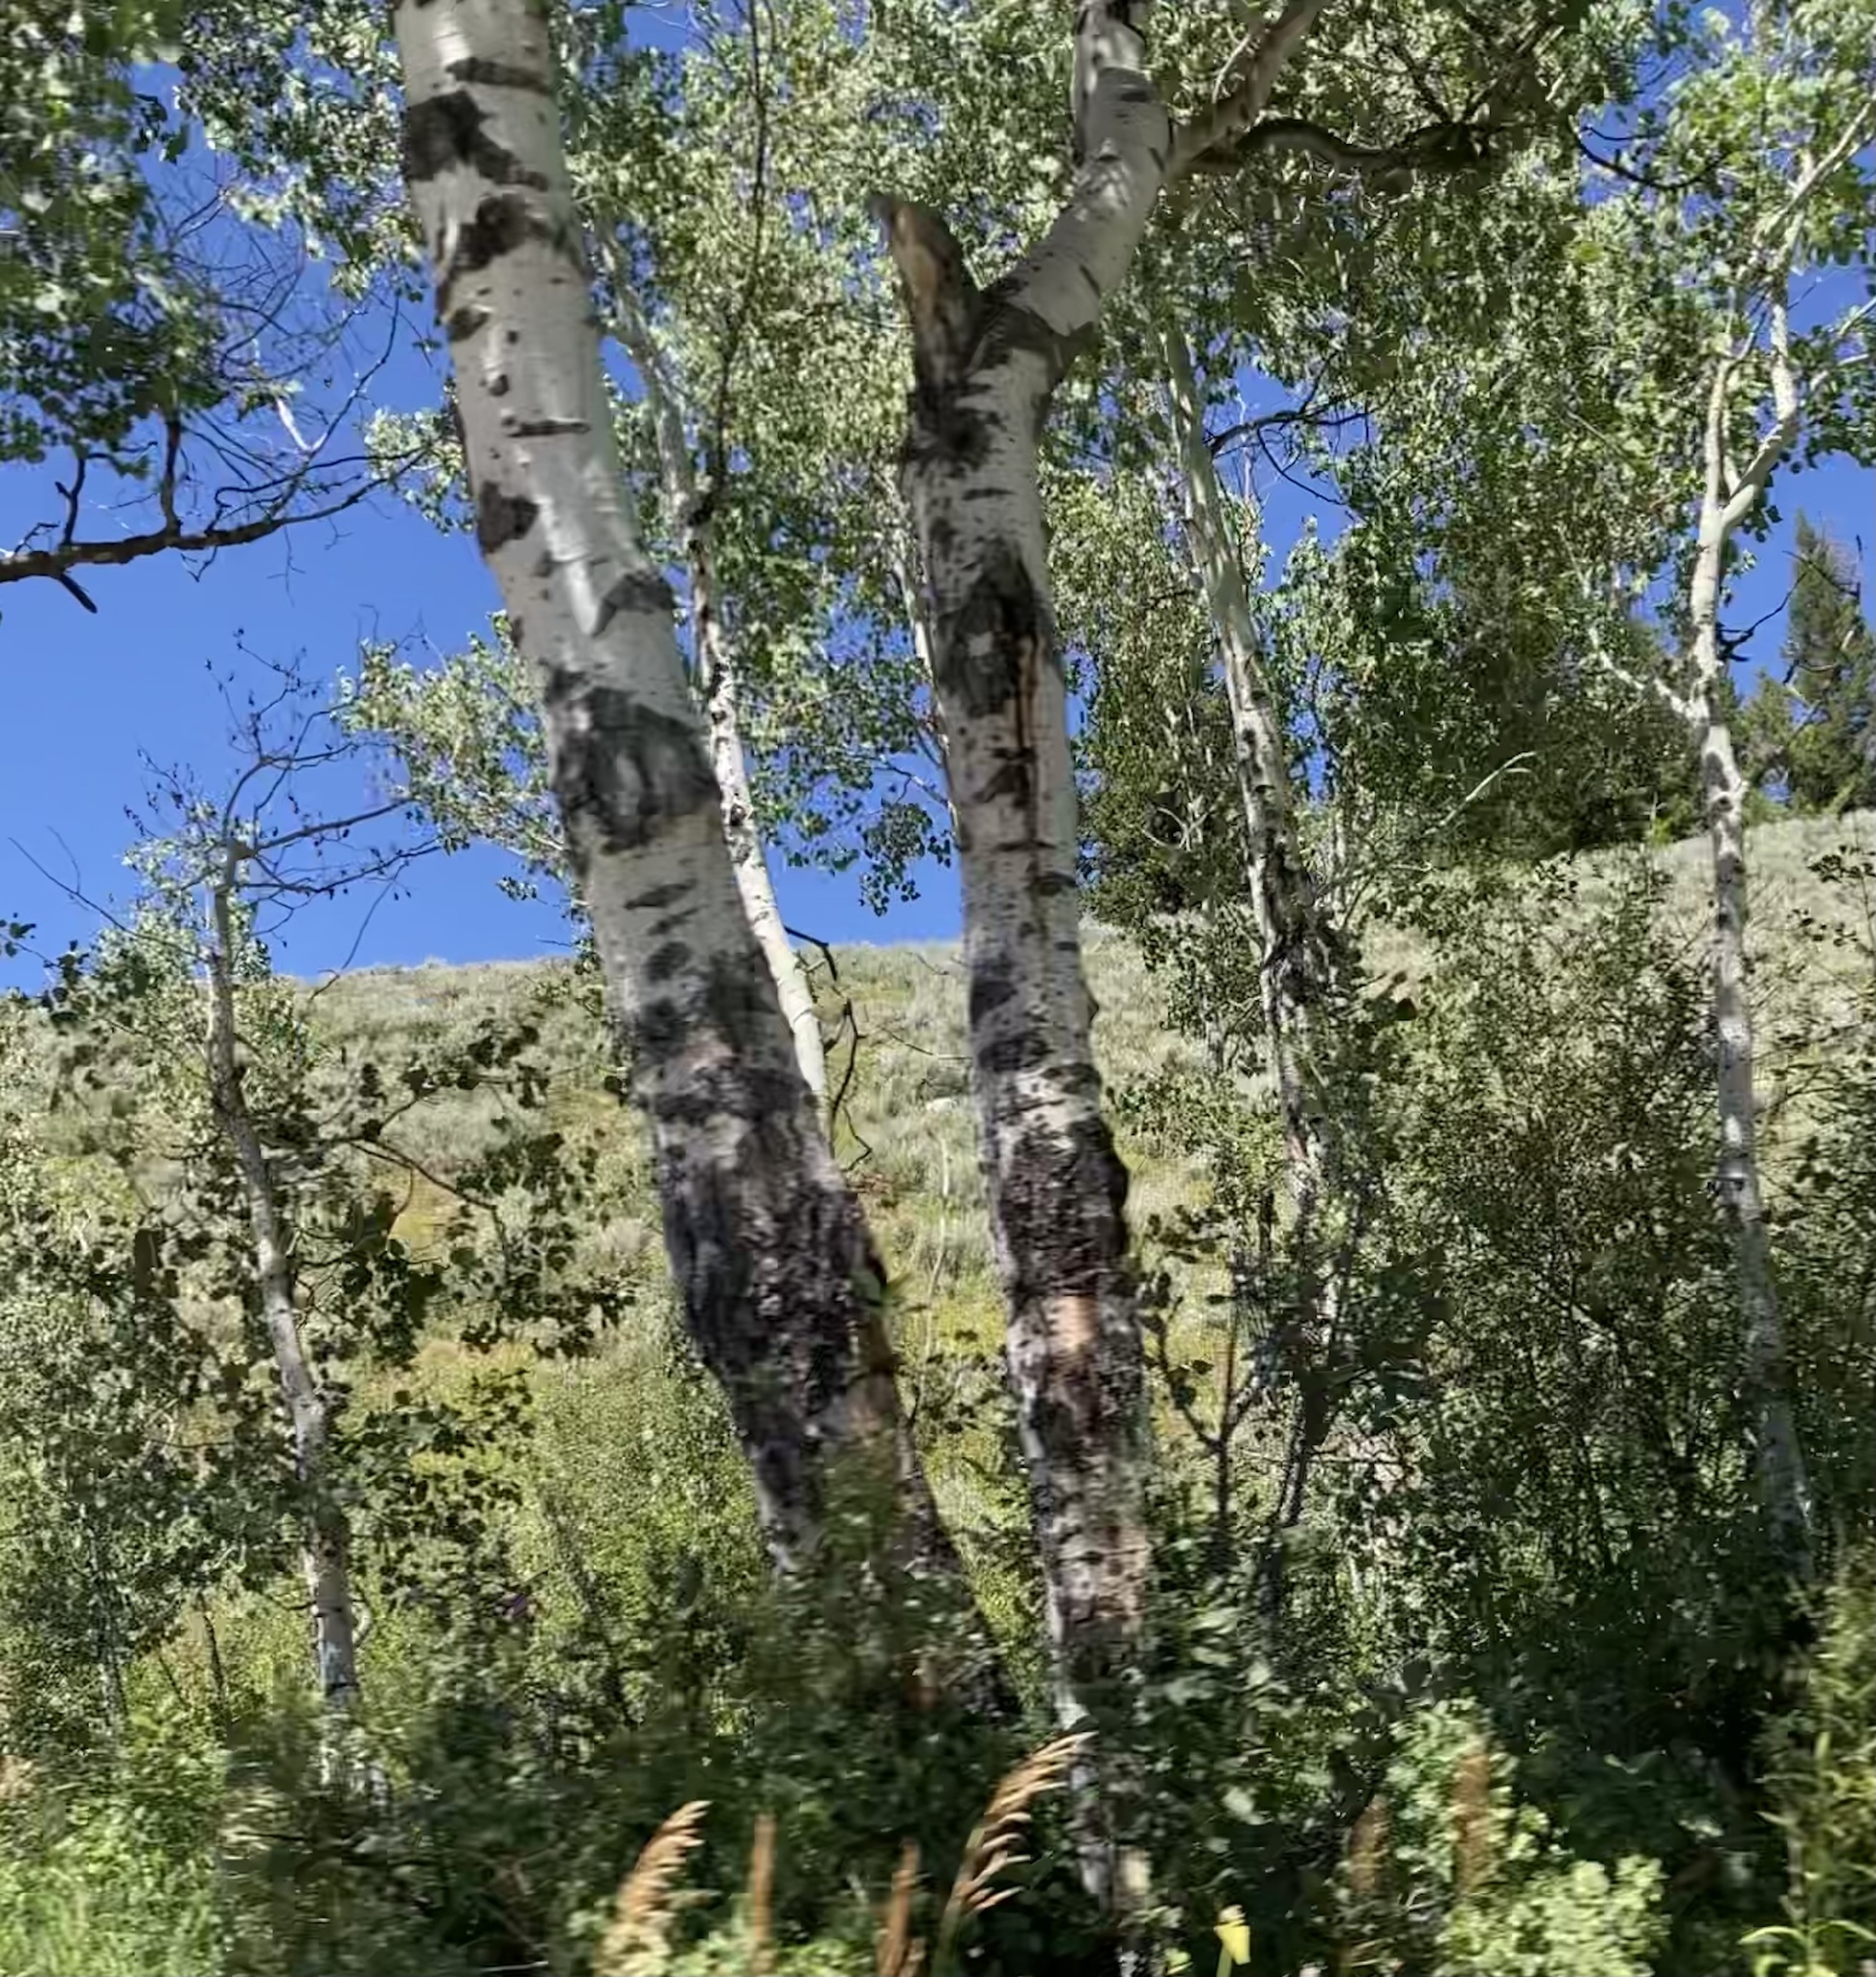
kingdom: Plantae
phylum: Tracheophyta
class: Magnoliopsida
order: Malpighiales
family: Salicaceae
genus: Populus
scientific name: Populus tremuloides
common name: Quaking aspen
